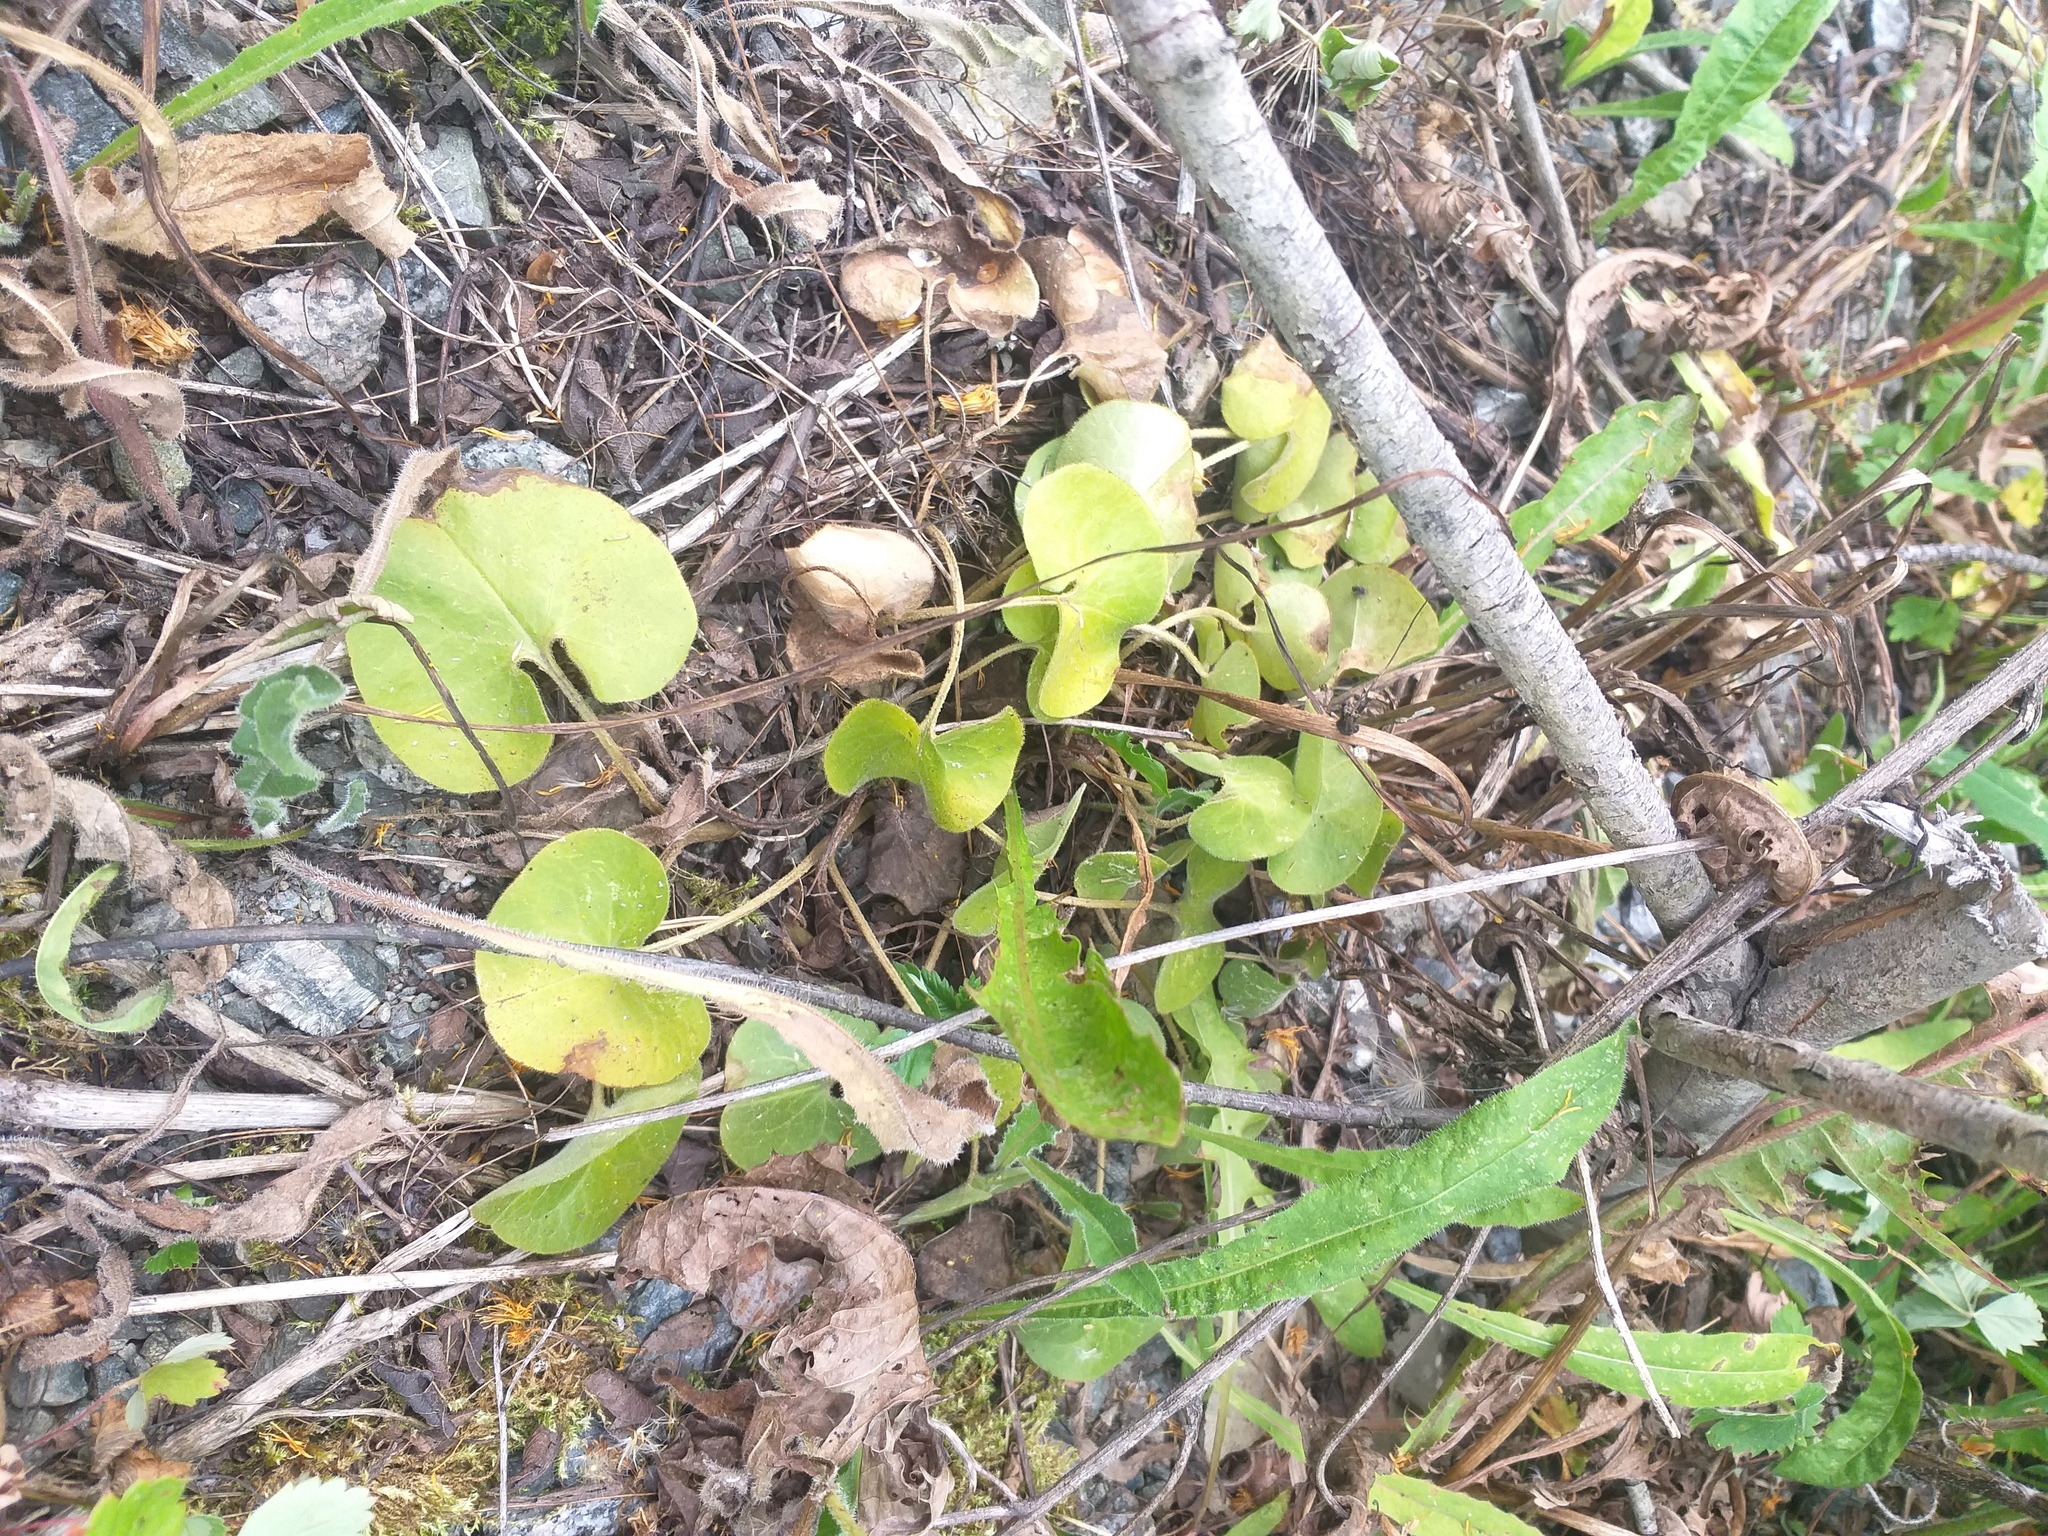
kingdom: Plantae
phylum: Tracheophyta
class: Magnoliopsida
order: Piperales
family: Aristolochiaceae
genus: Asarum
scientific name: Asarum europaeum
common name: Asarabacca
